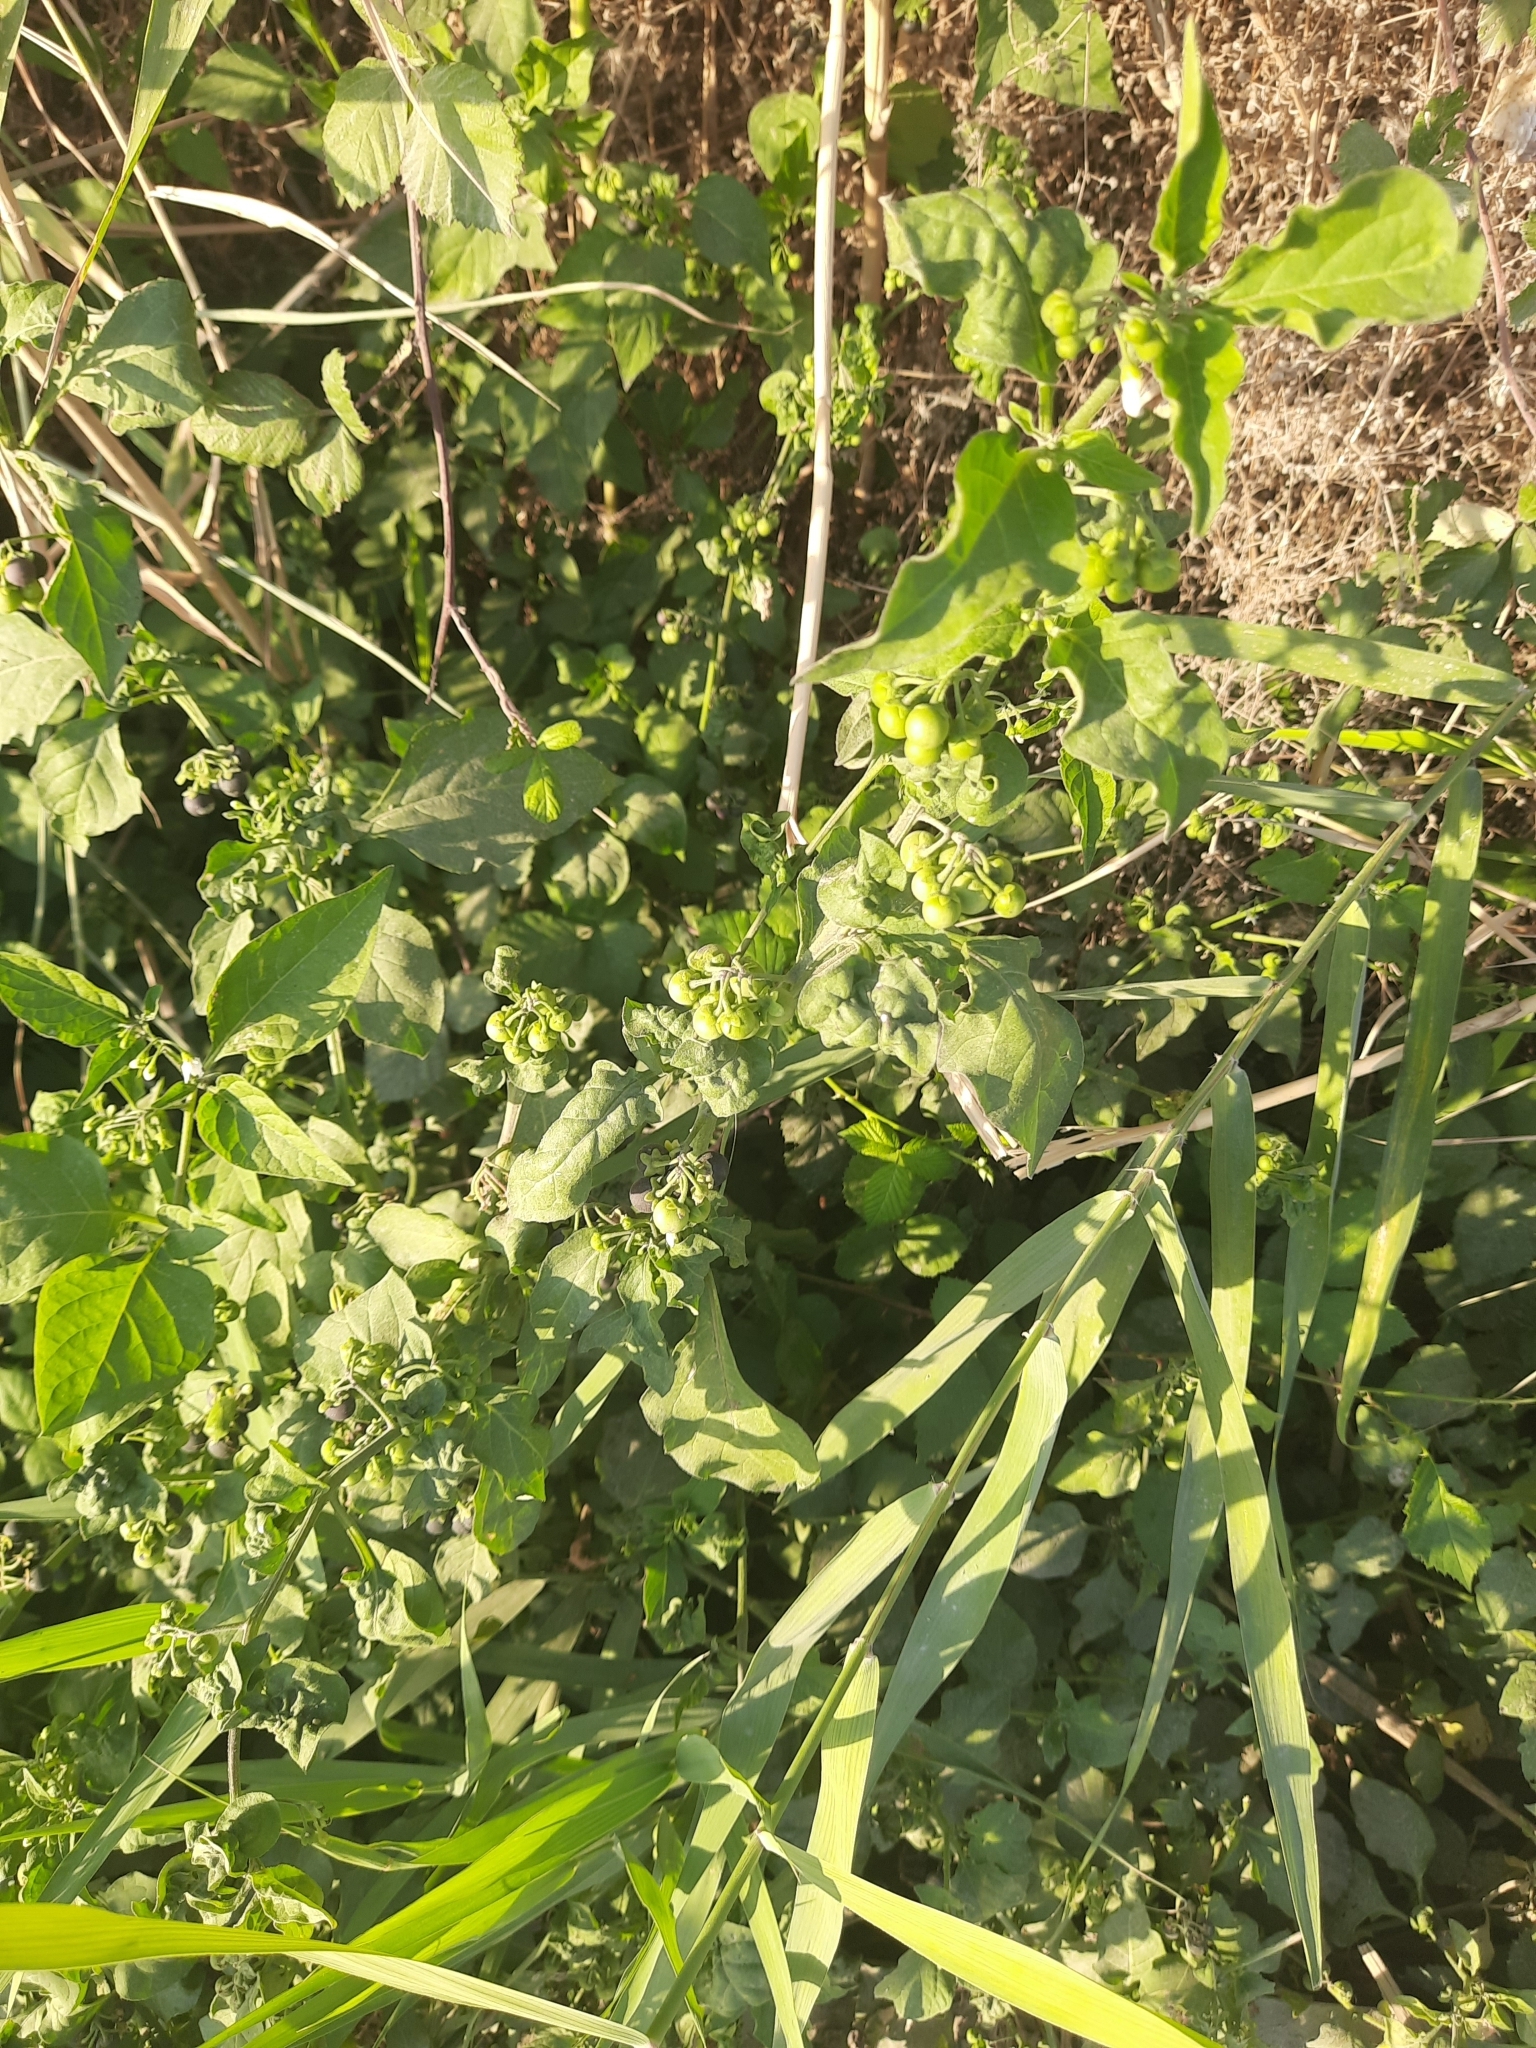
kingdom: Plantae
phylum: Tracheophyta
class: Magnoliopsida
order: Solanales
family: Solanaceae
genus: Solanum
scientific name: Solanum nigrum
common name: Black nightshade
